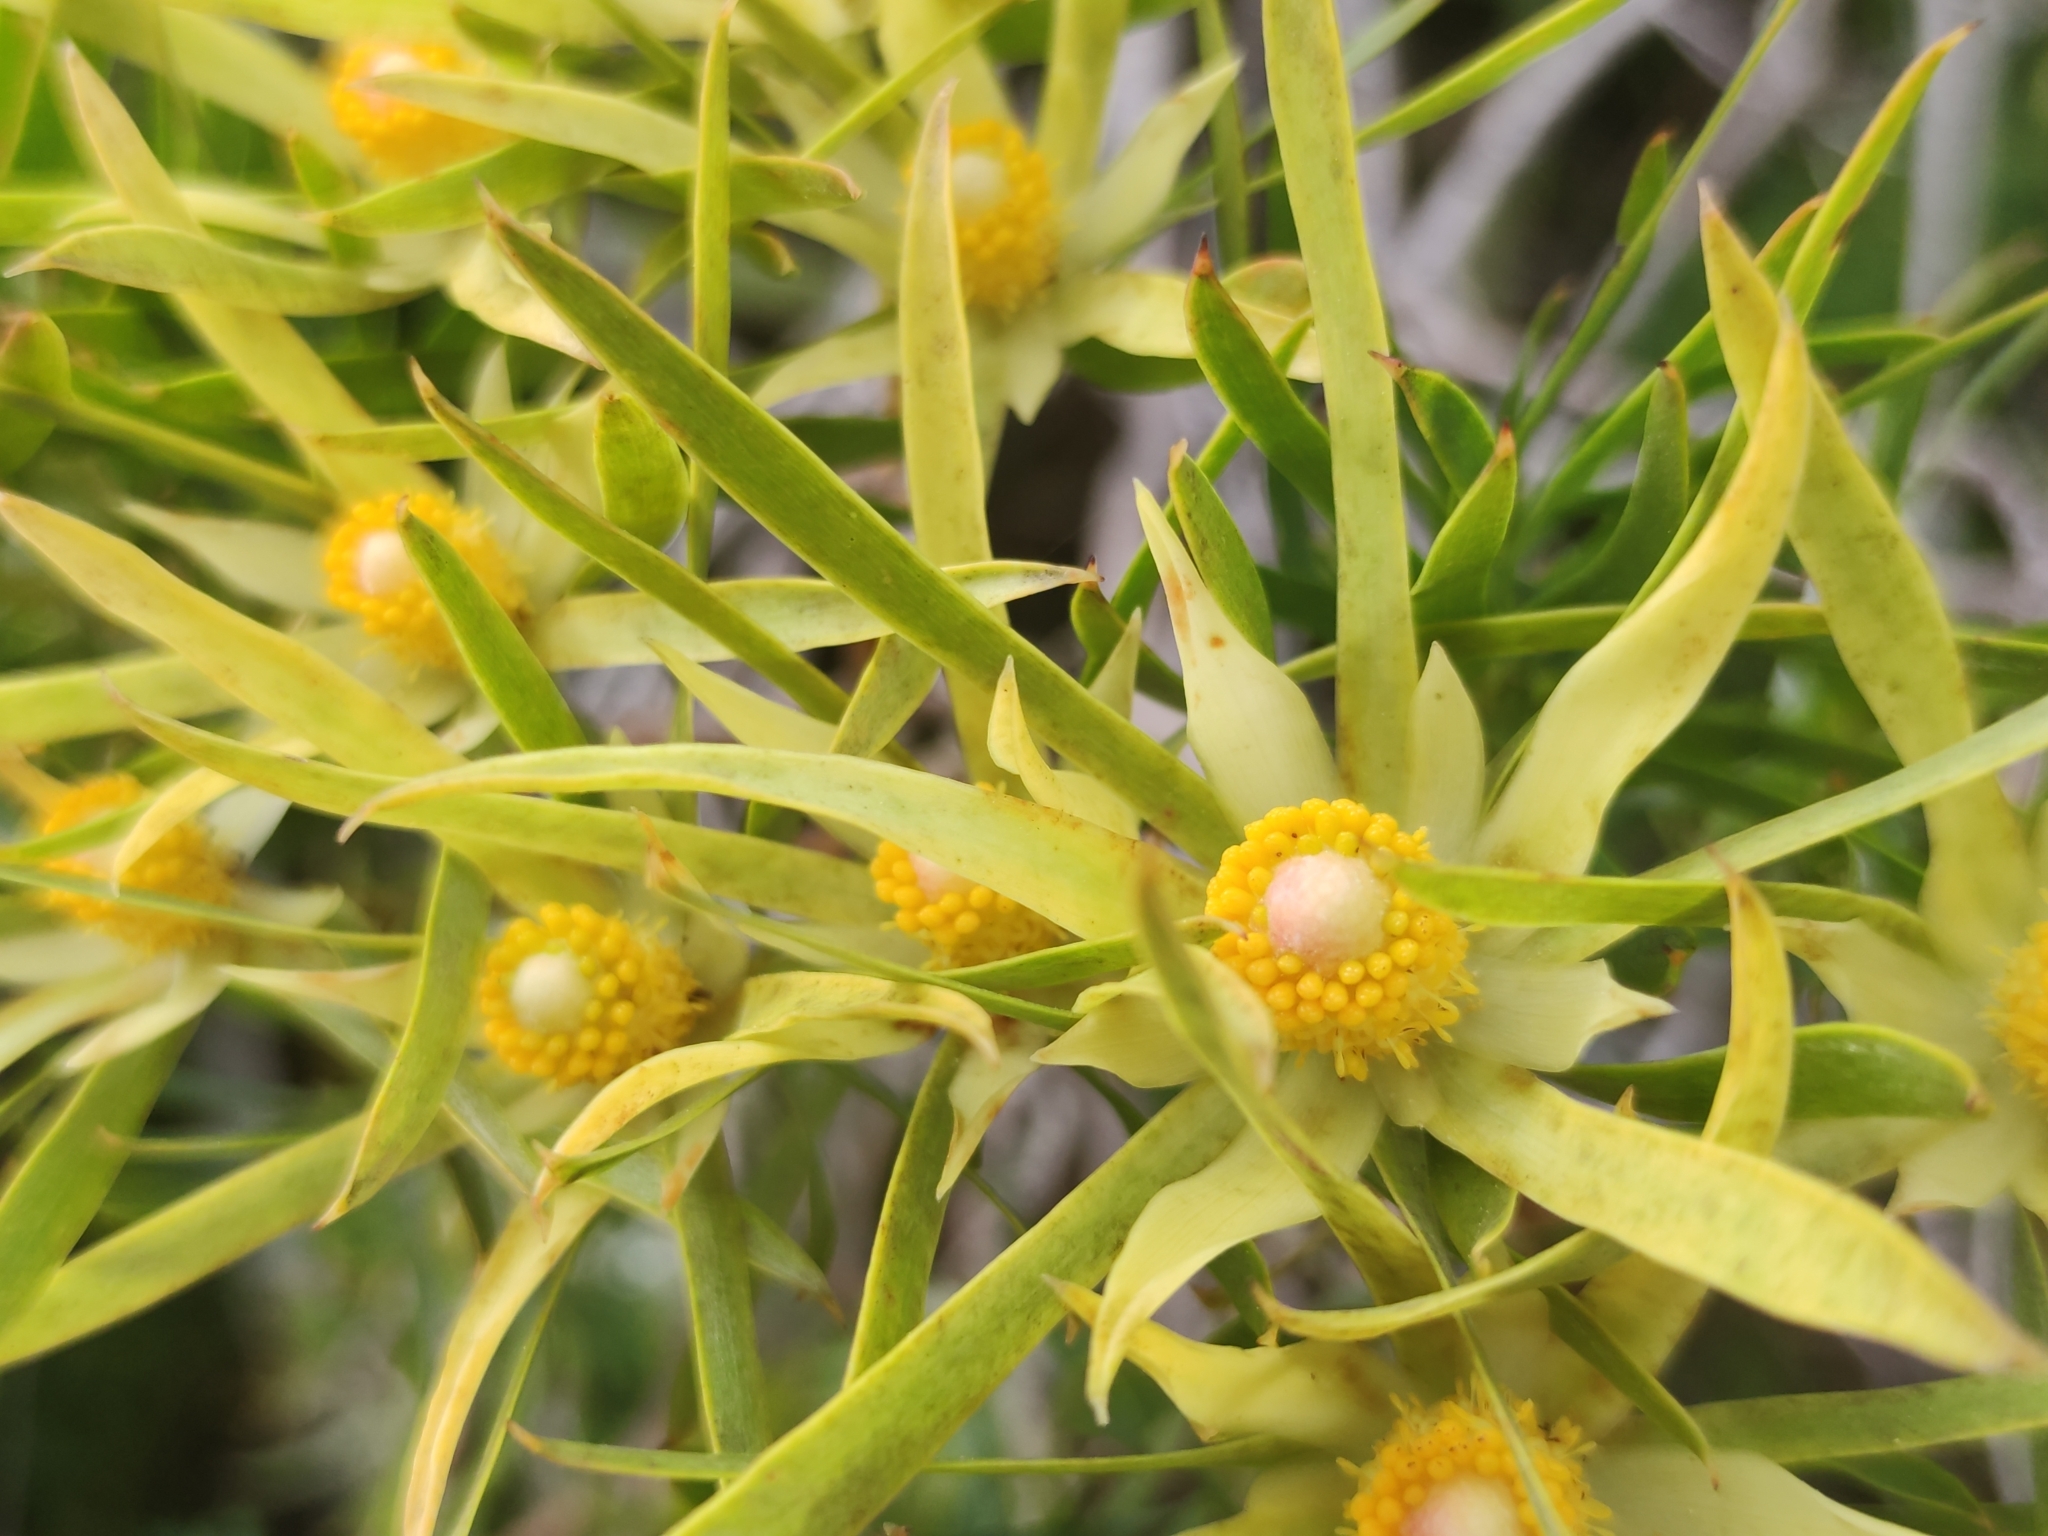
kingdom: Plantae
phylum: Tracheophyta
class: Magnoliopsida
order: Proteales
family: Proteaceae
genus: Leucadendron
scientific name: Leucadendron xanthoconus
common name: Sickle-leaf conebush
